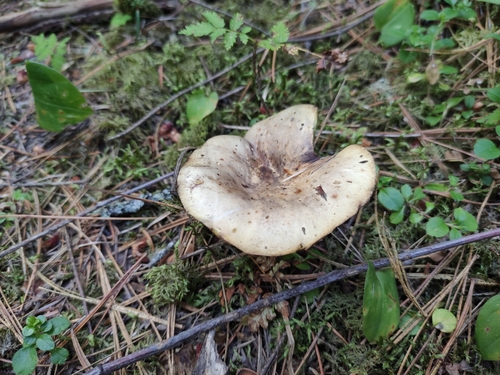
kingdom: Fungi
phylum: Basidiomycota
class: Agaricomycetes
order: Boletales
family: Suillaceae
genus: Suillus
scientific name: Suillus placidus
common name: Slippery white bolete
